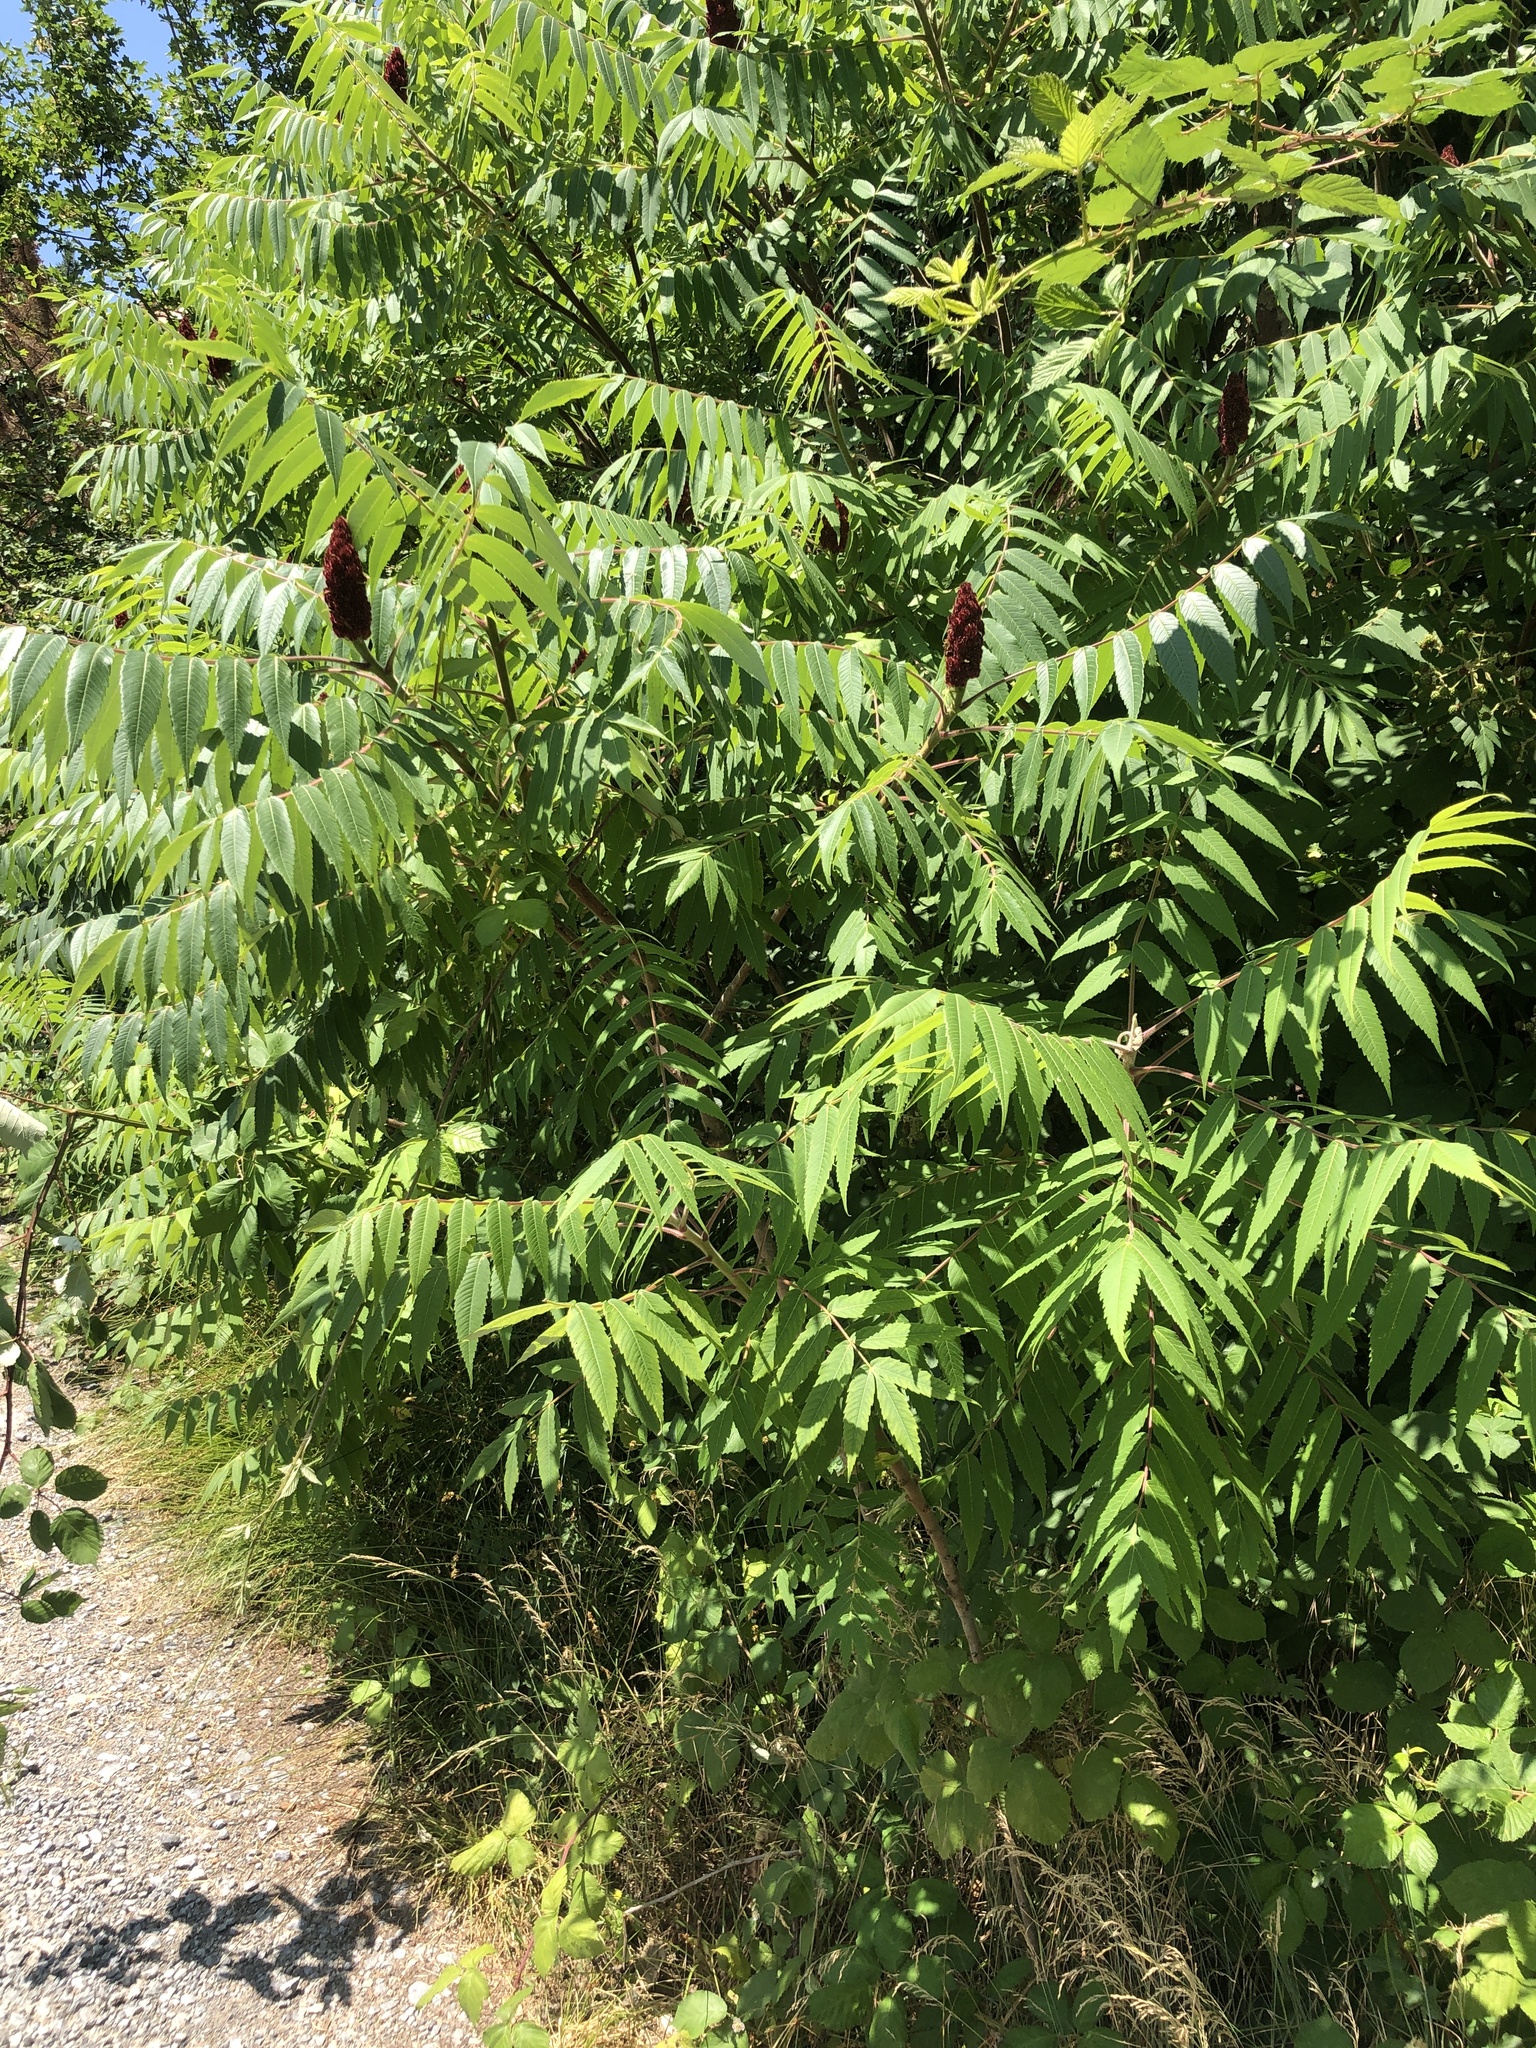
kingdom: Plantae
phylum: Tracheophyta
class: Magnoliopsida
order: Sapindales
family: Anacardiaceae
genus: Rhus
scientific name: Rhus typhina
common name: Staghorn sumac
